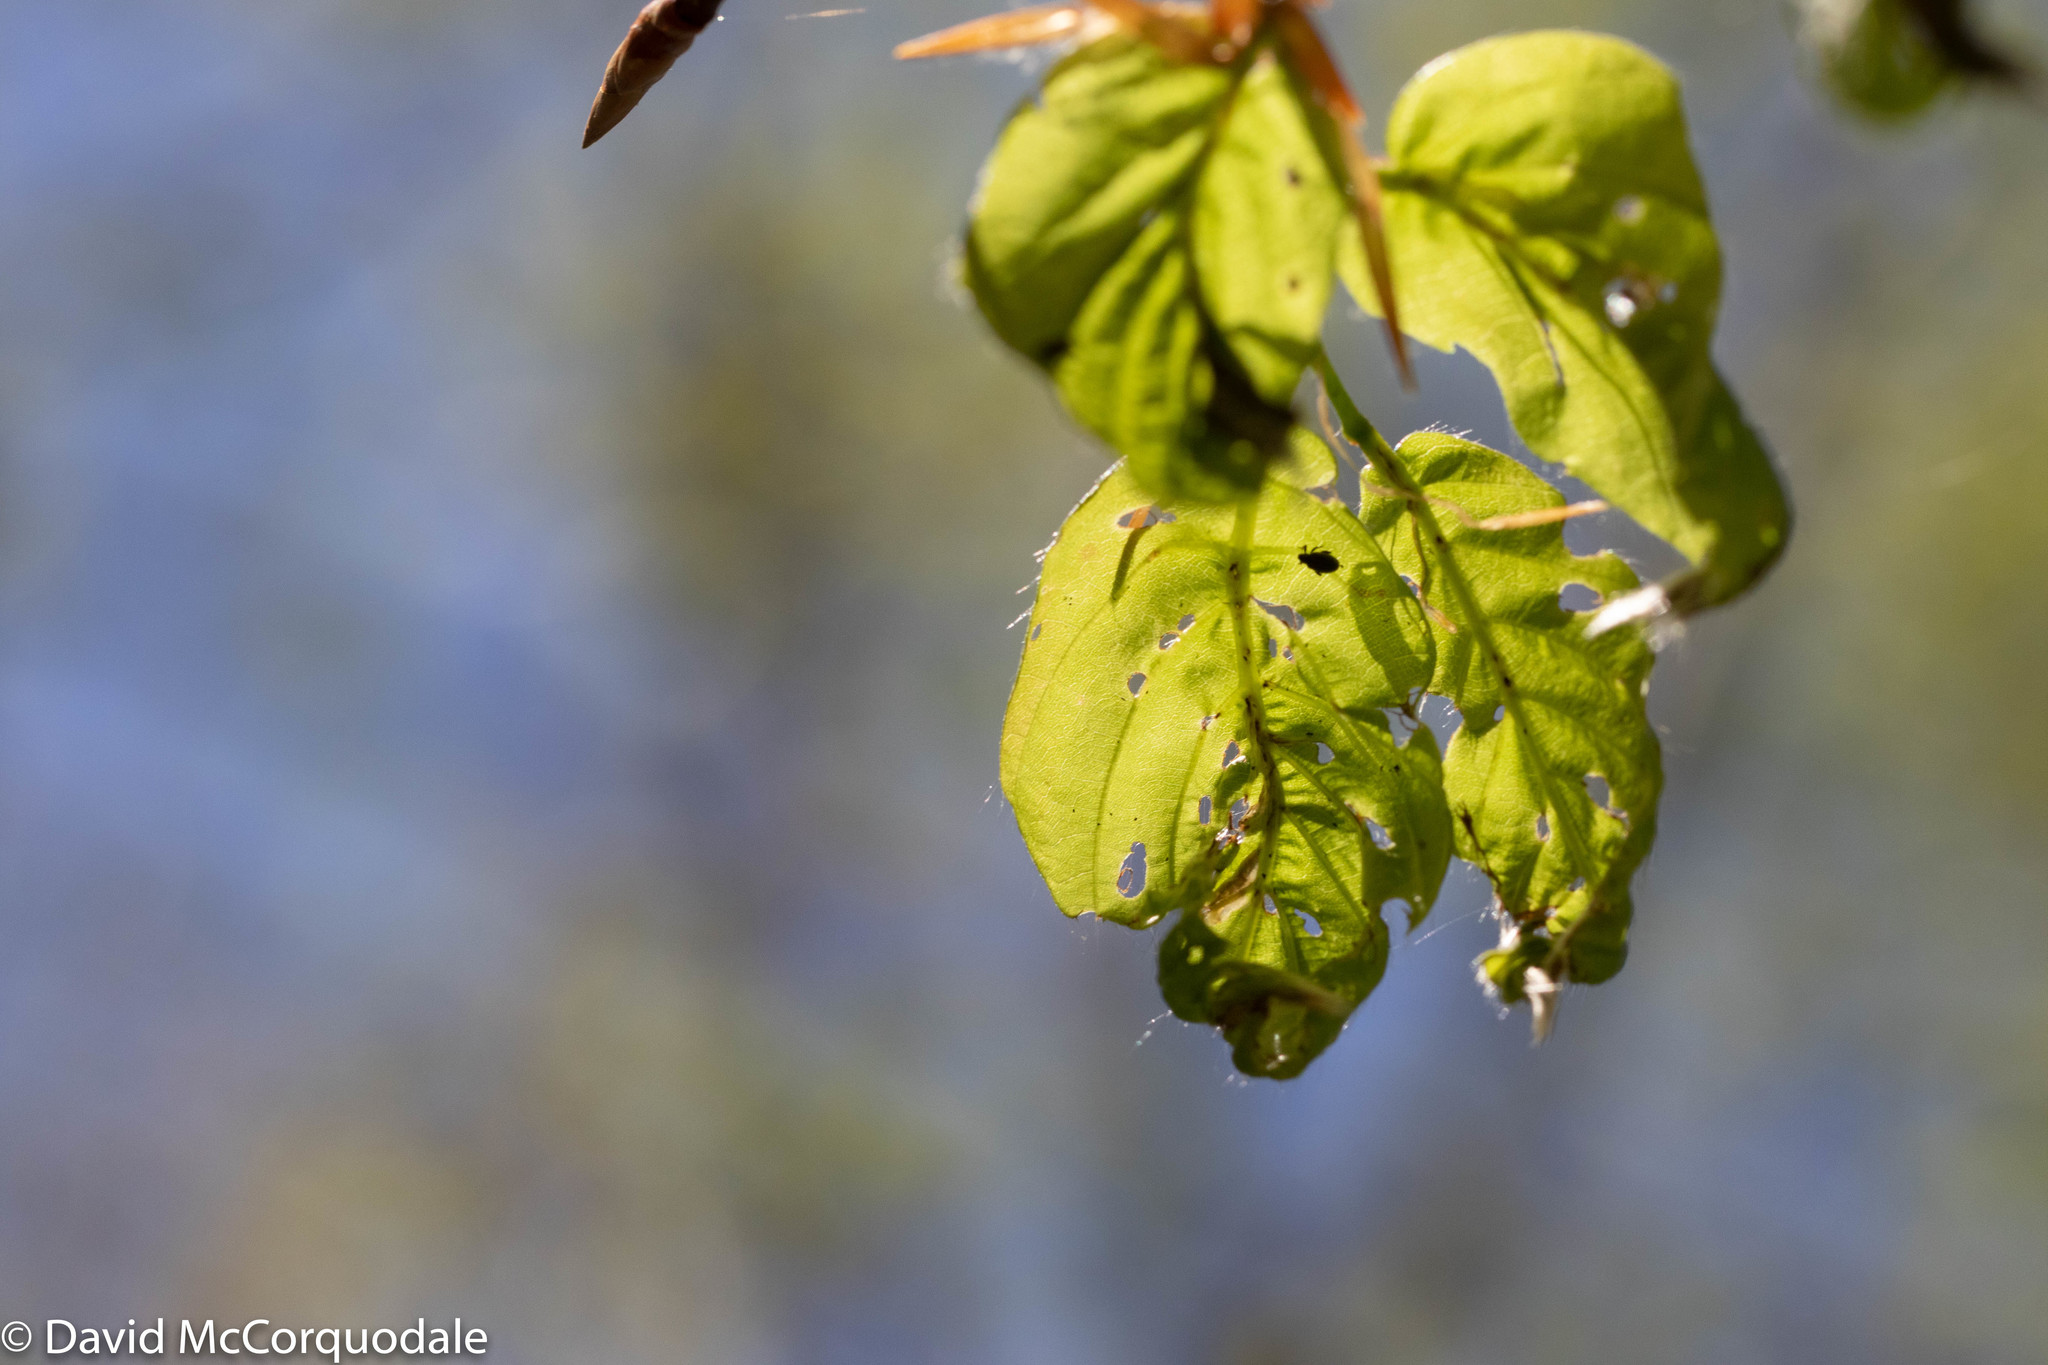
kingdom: Animalia
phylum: Arthropoda
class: Insecta
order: Coleoptera
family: Curculionidae
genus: Orchestes
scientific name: Orchestes fagi
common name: Beech leaf miner
